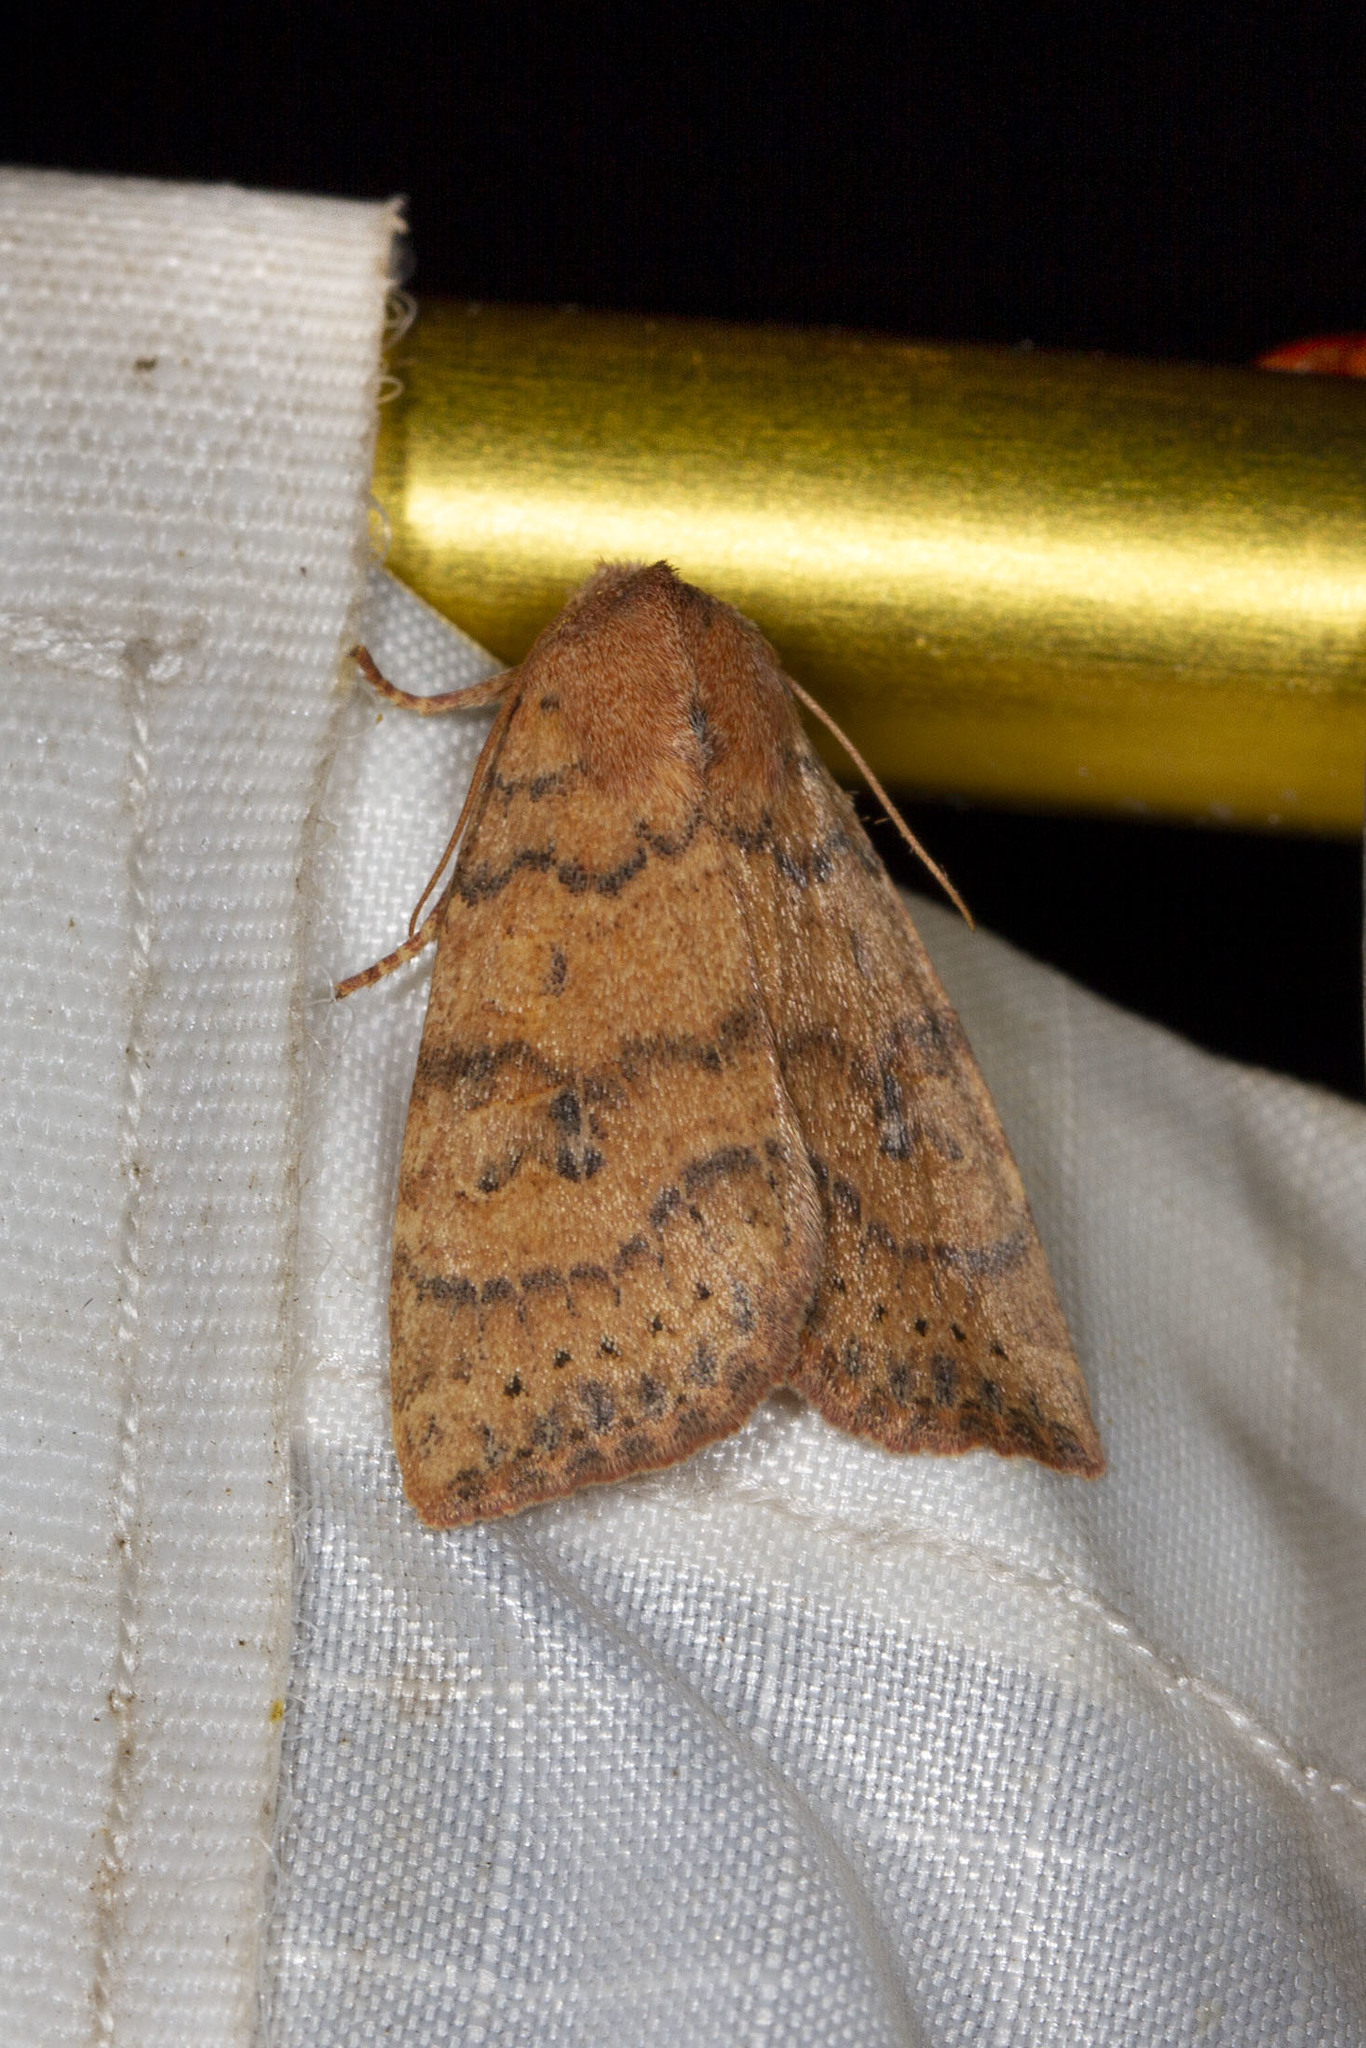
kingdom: Animalia
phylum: Arthropoda
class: Insecta
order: Lepidoptera
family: Noctuidae
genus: Anathix
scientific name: Anathix ralla
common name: Dotted sallow
